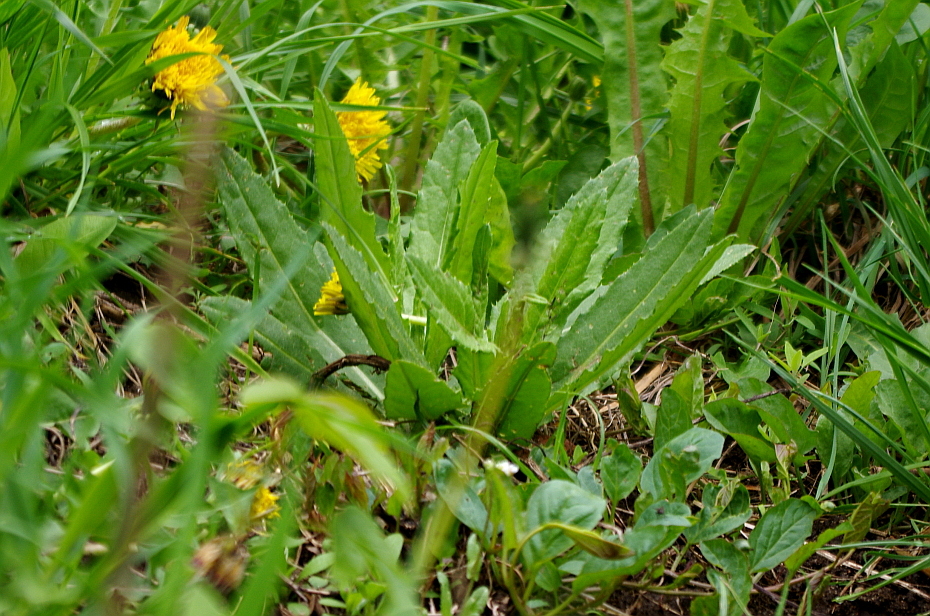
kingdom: Plantae
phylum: Tracheophyta
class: Magnoliopsida
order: Asterales
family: Asteraceae
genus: Cirsium
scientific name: Cirsium arvense
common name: Creeping thistle
